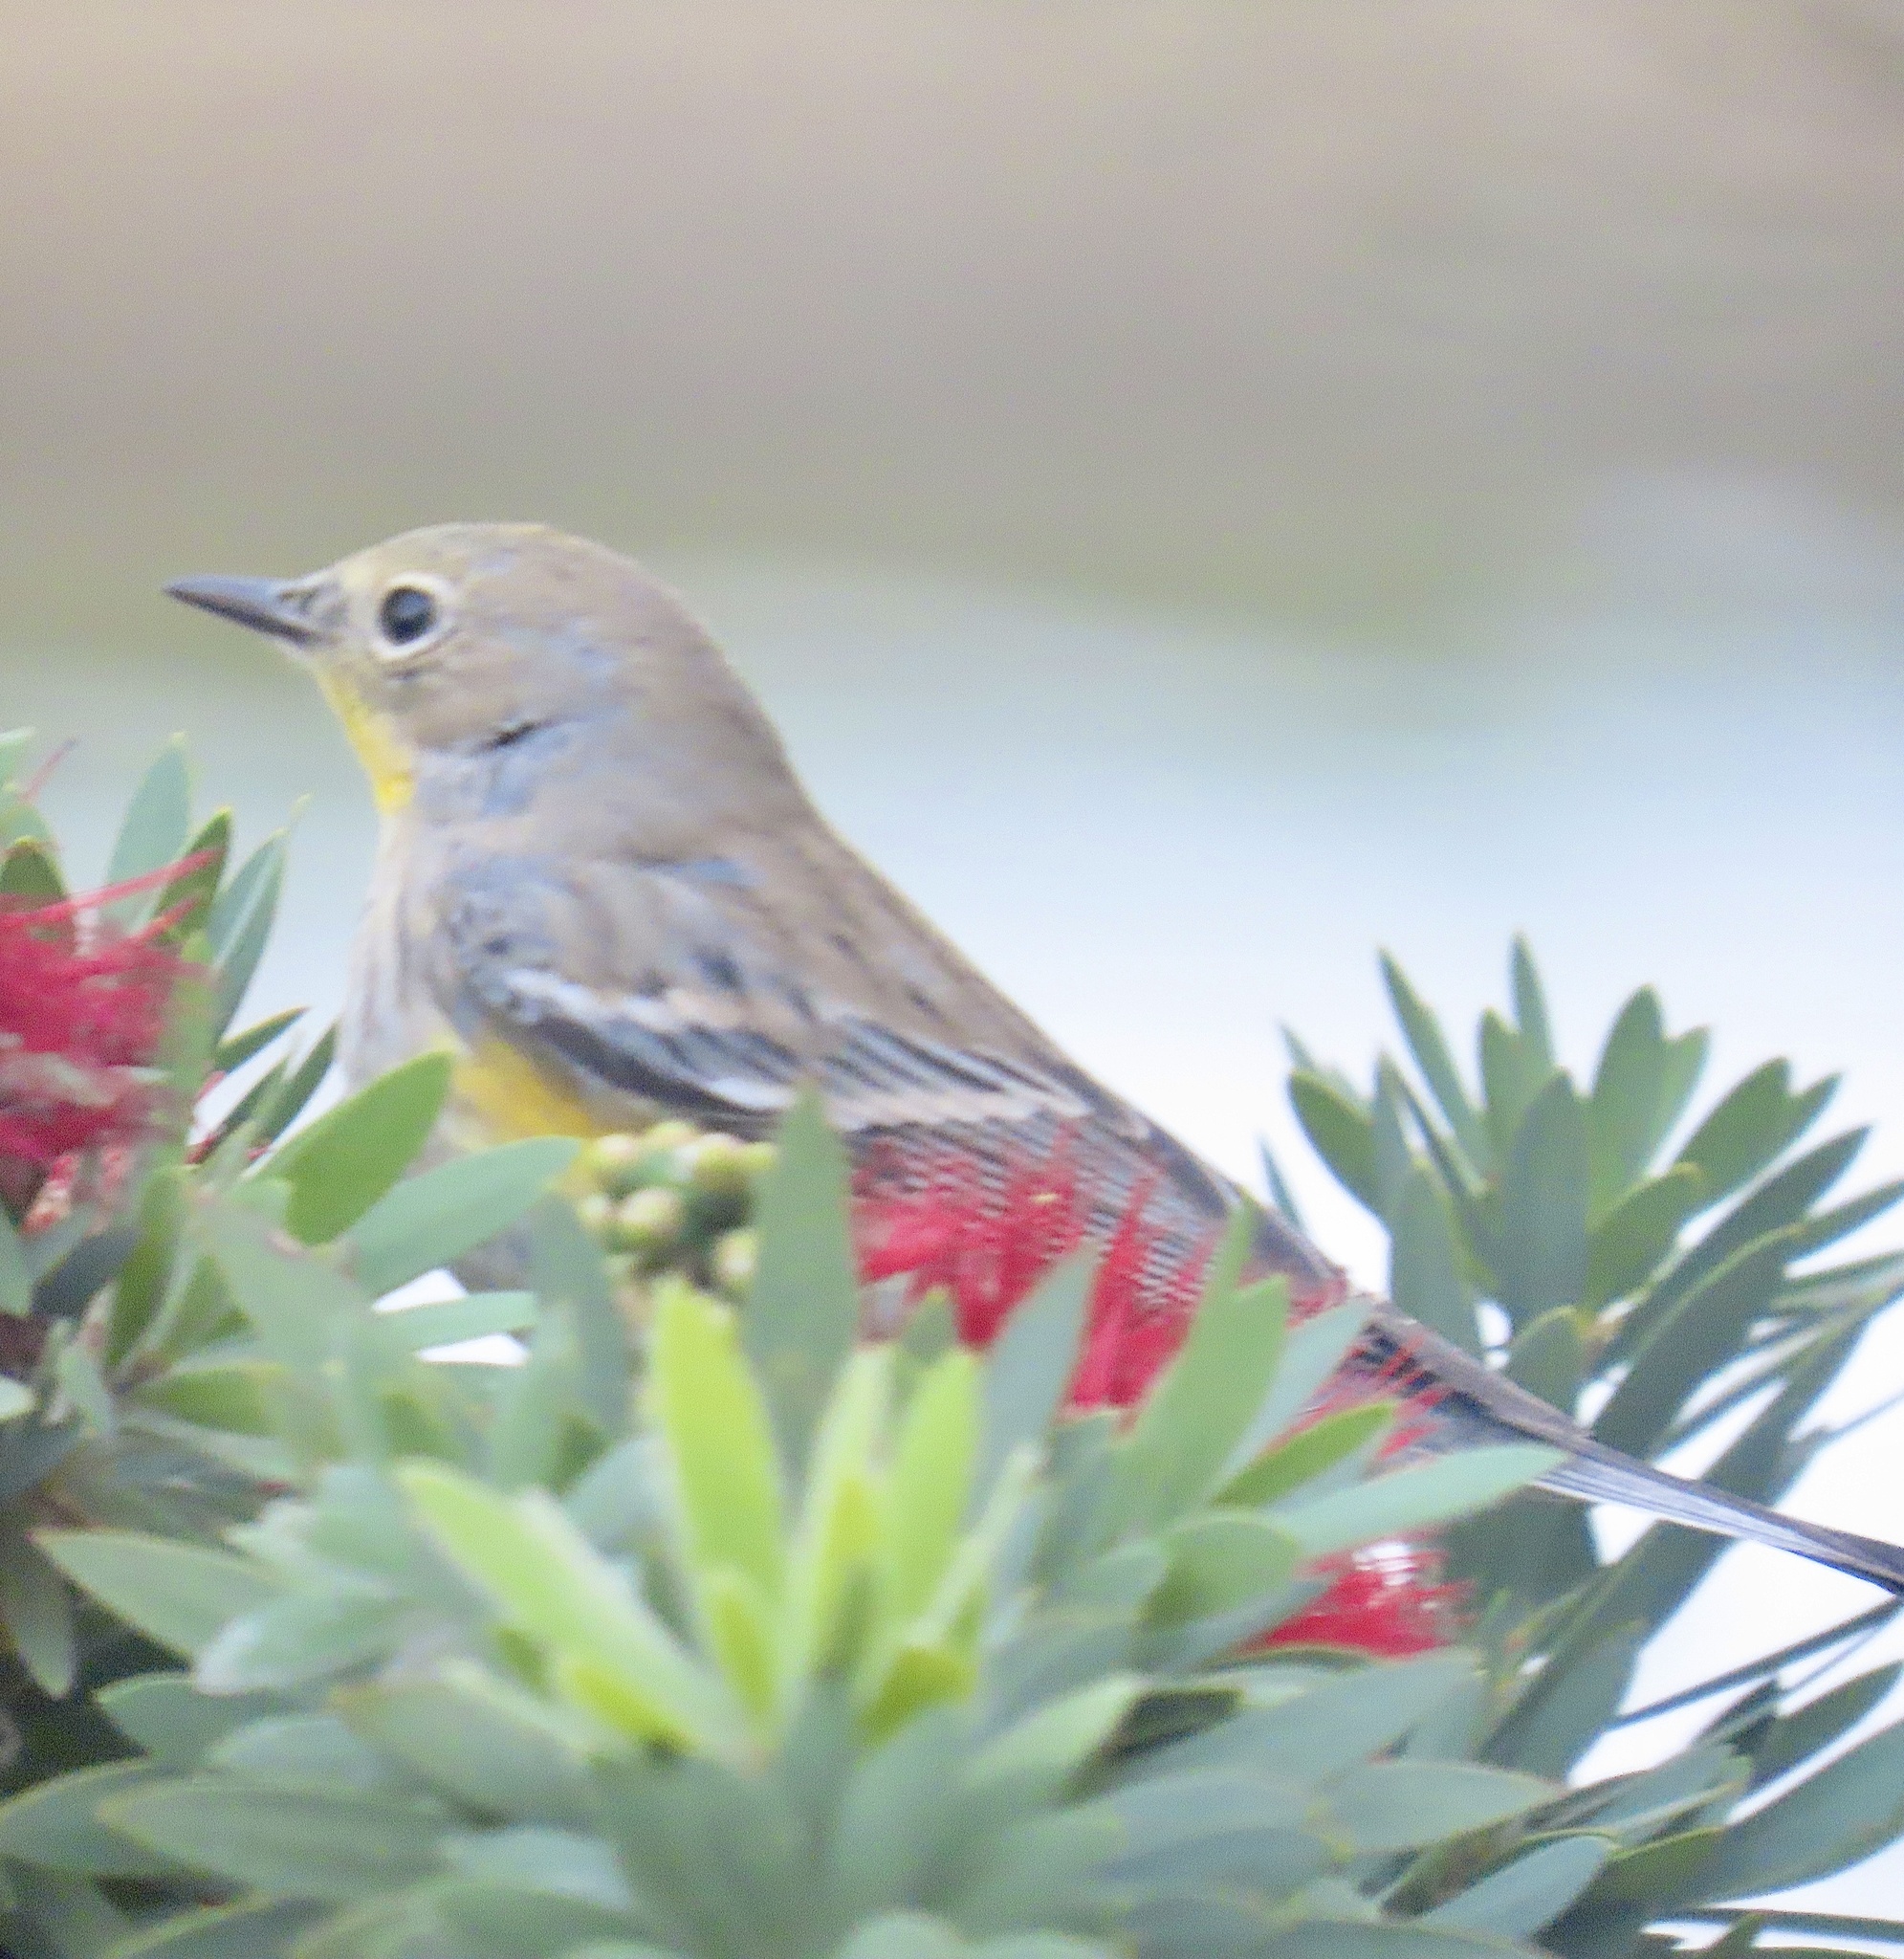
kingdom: Animalia
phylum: Chordata
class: Aves
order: Passeriformes
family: Parulidae
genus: Setophaga
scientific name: Setophaga auduboni
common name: Audubon's warbler
